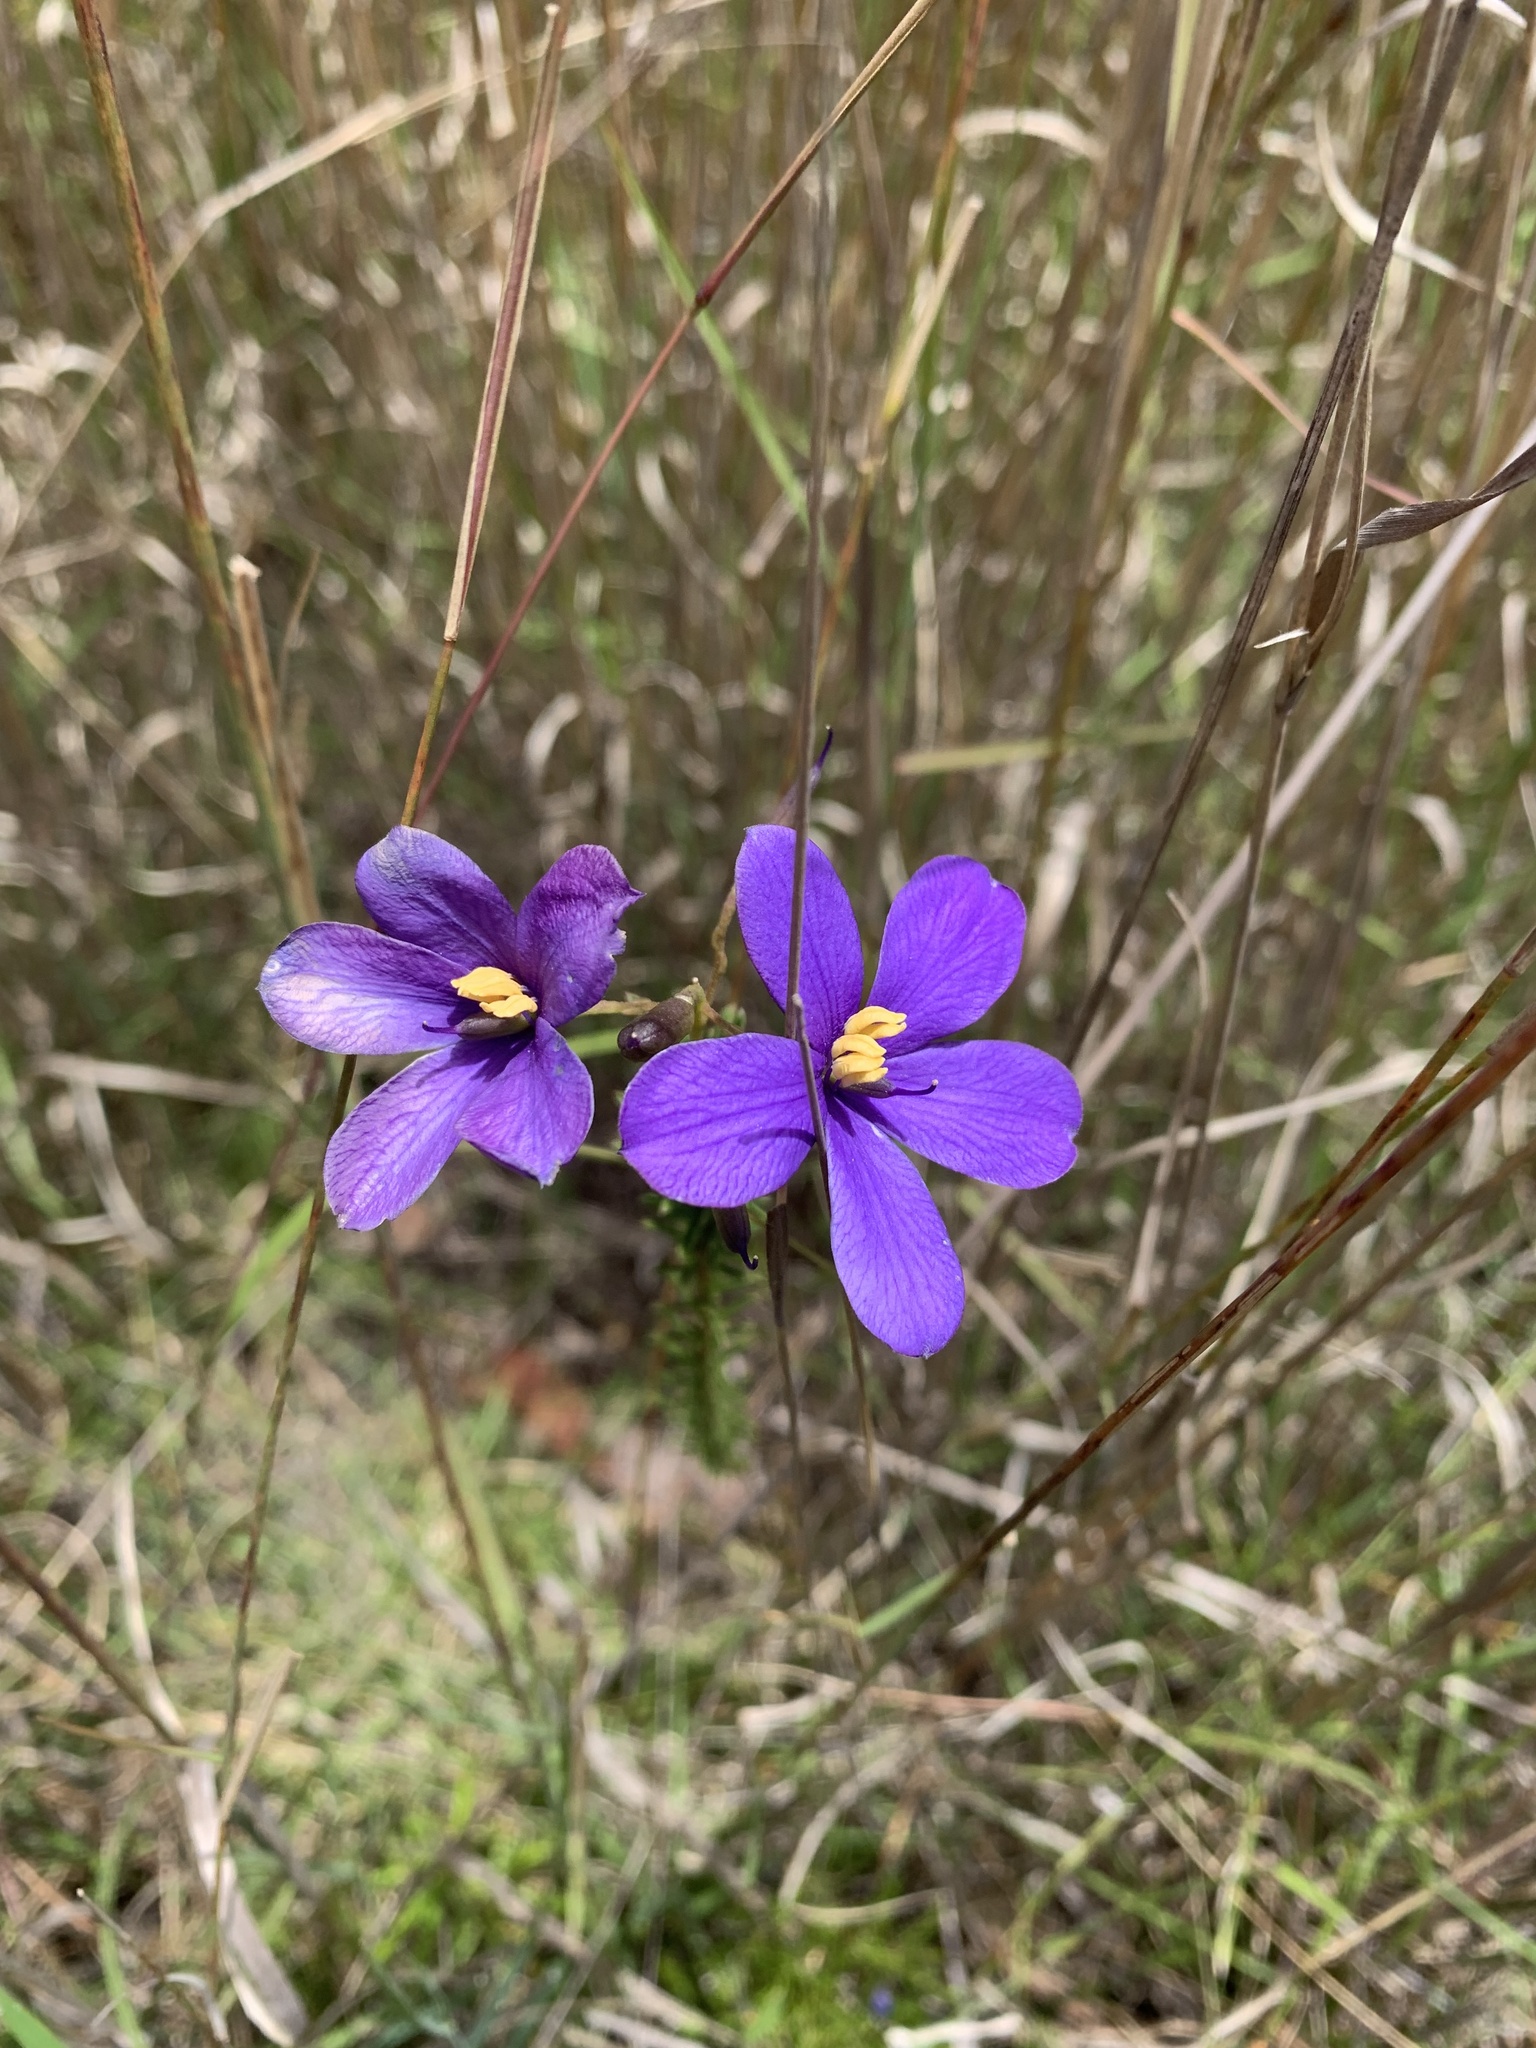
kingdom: Plantae
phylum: Tracheophyta
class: Magnoliopsida
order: Apiales
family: Pittosporaceae
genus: Cheiranthera
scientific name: Cheiranthera linearis
